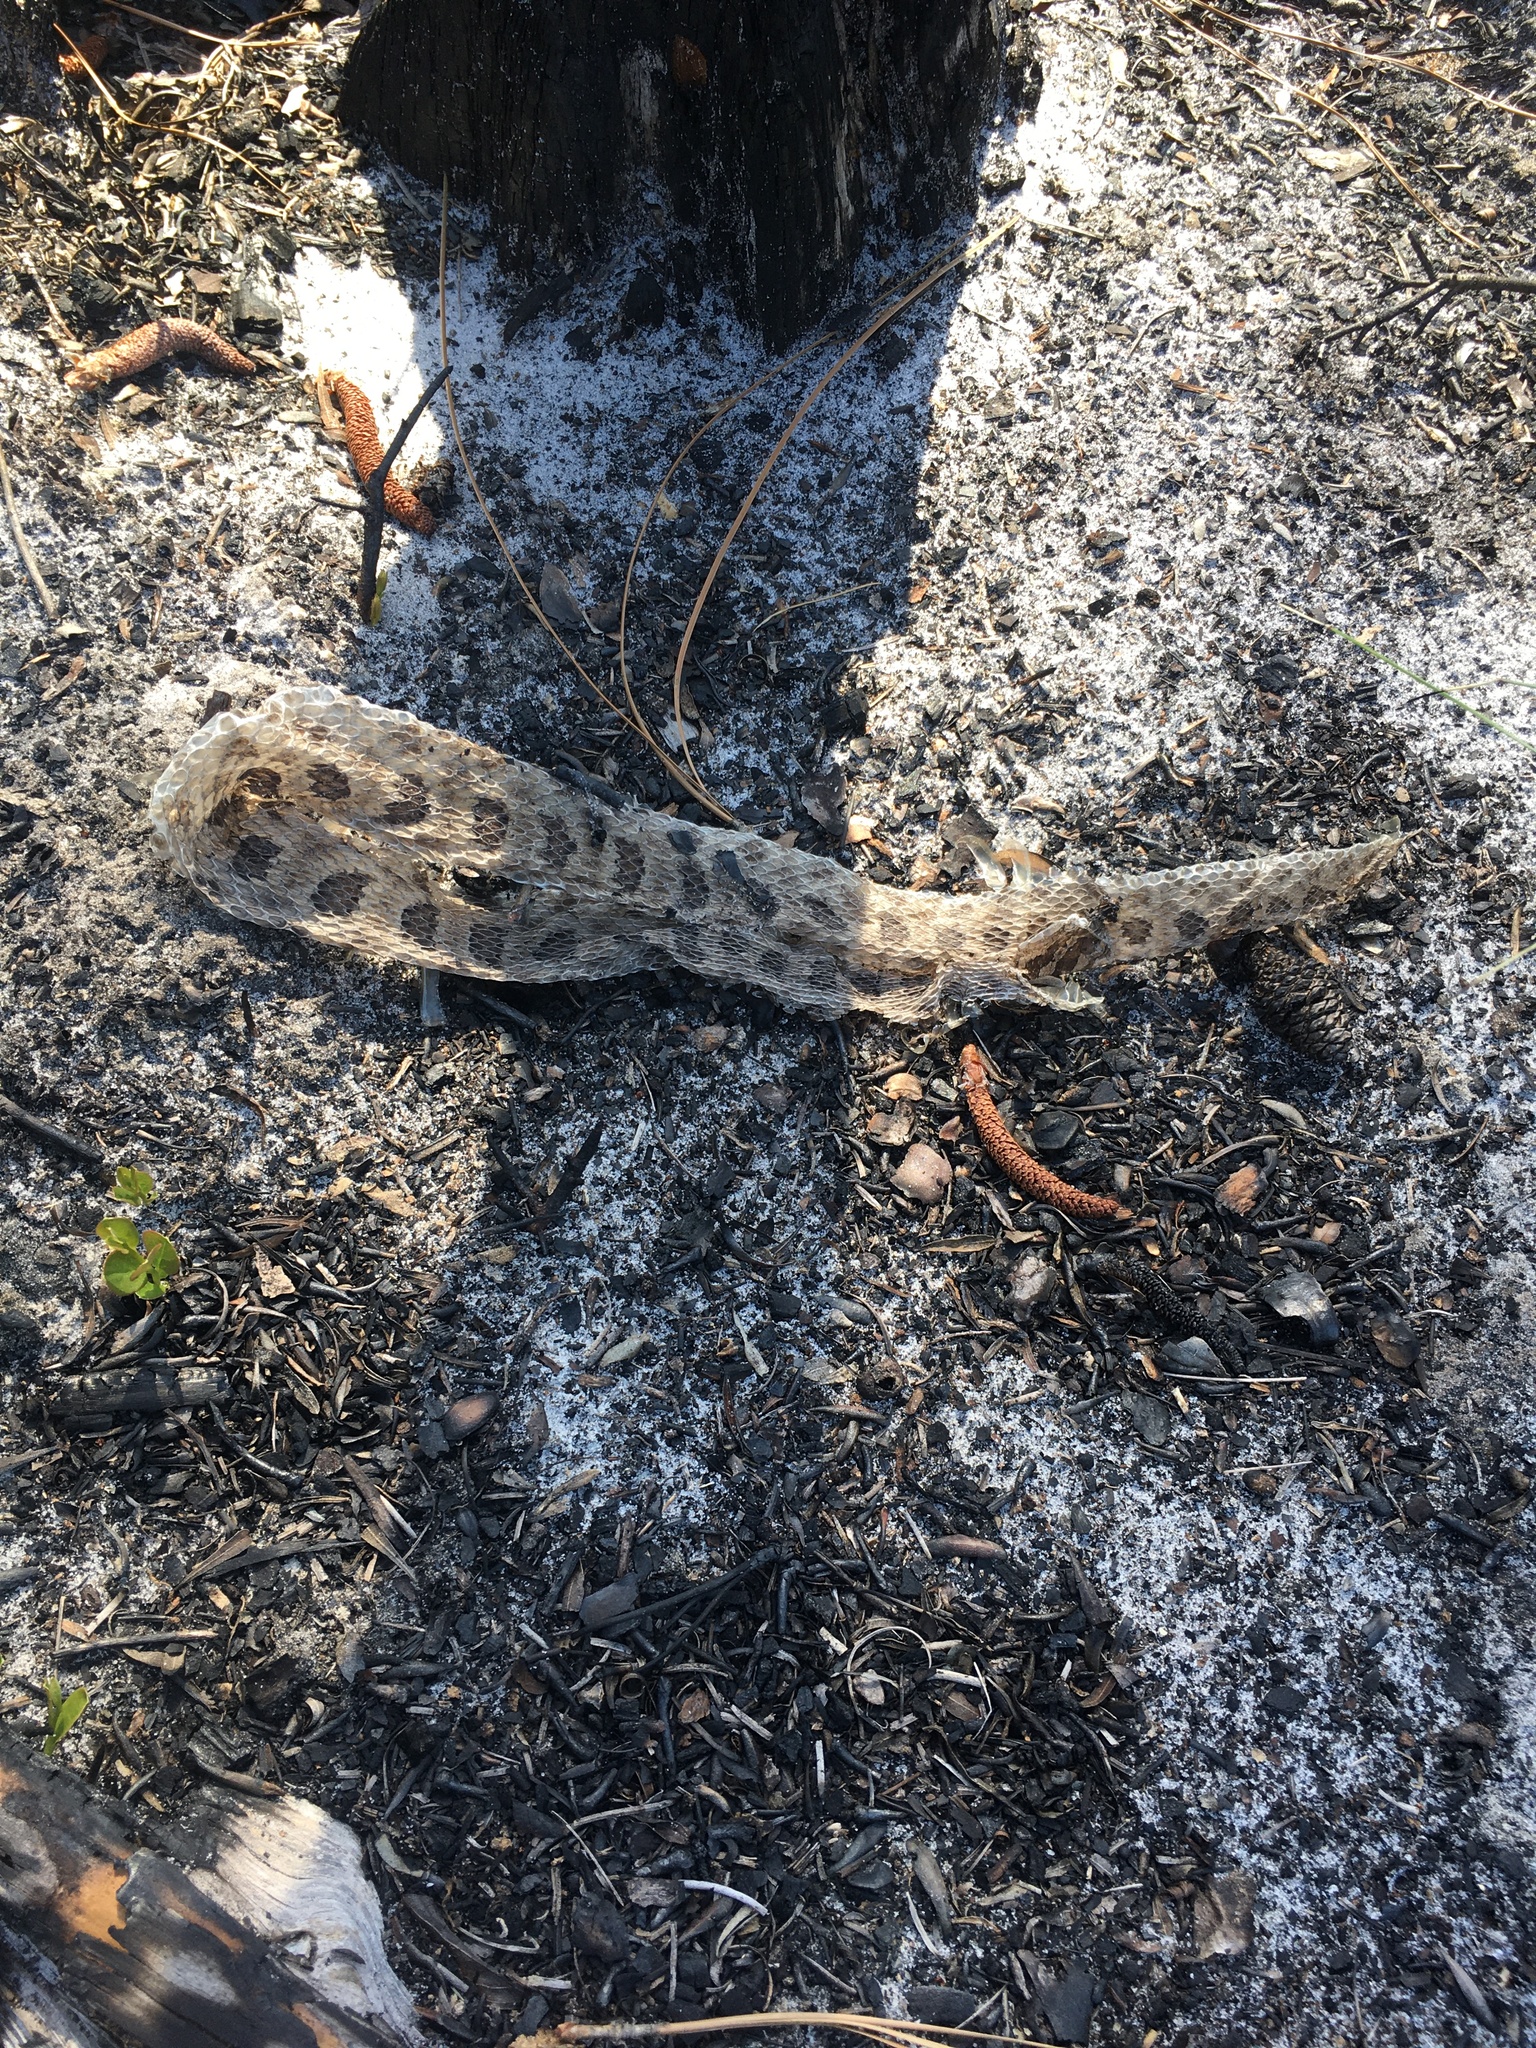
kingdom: Animalia
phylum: Chordata
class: Squamata
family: Viperidae
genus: Sistrurus
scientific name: Sistrurus miliarius
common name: Pygmy rattlesnake
